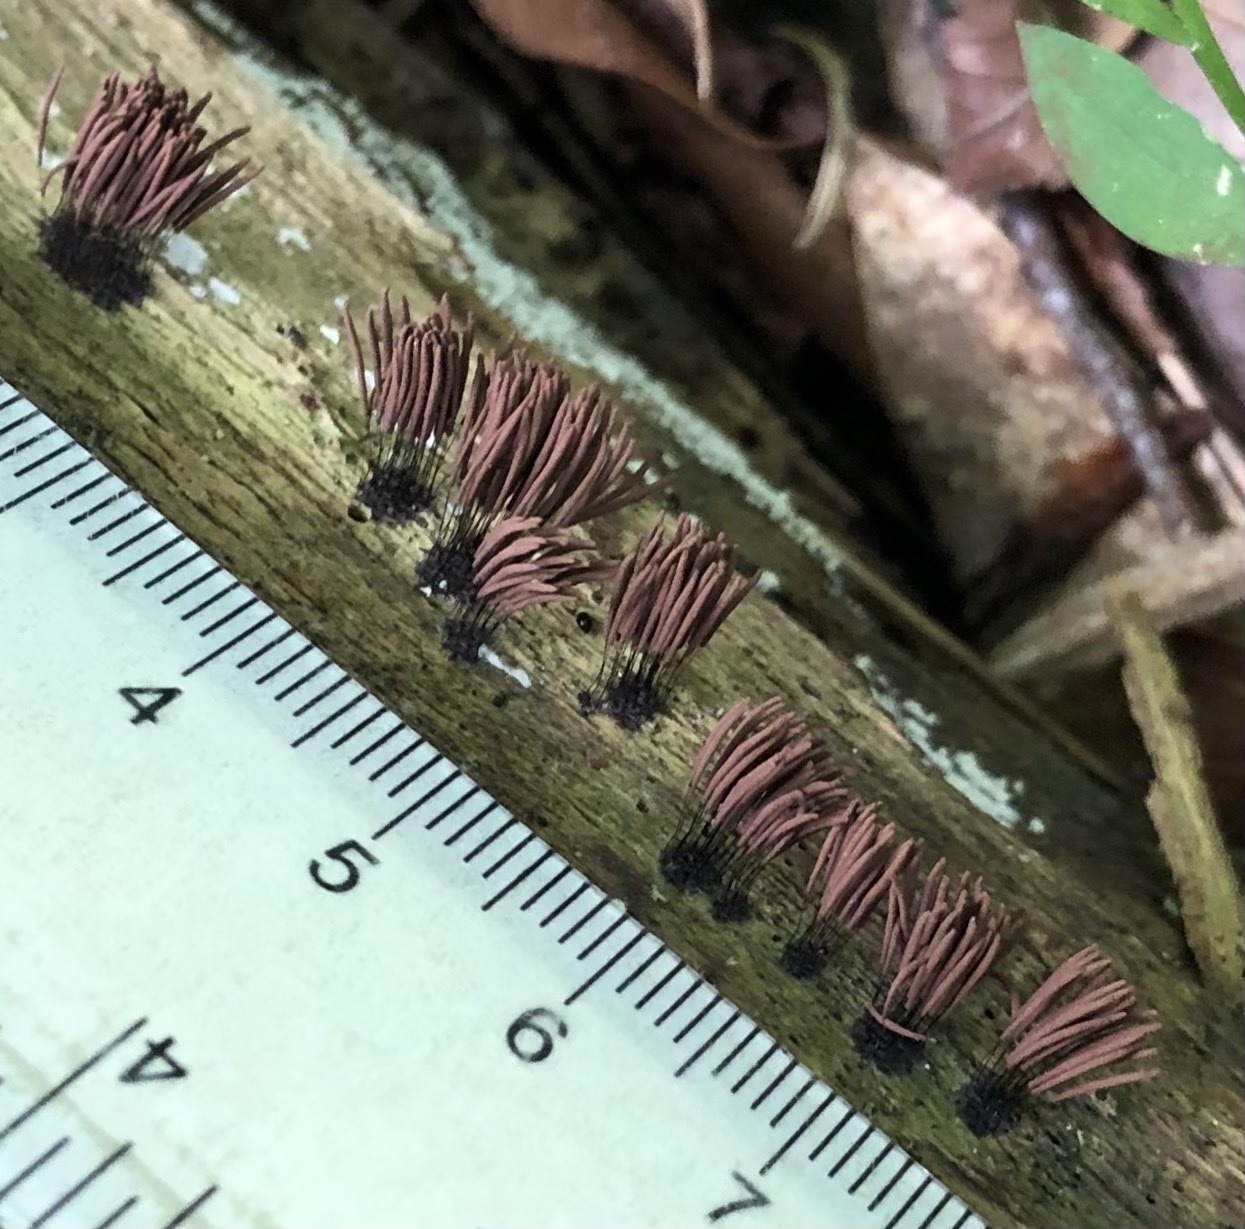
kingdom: Protozoa
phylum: Mycetozoa
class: Myxomycetes
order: Stemonitidales
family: Stemonitidaceae
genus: Stemonitis
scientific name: Stemonitis splendens
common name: Chocolate tube slime
